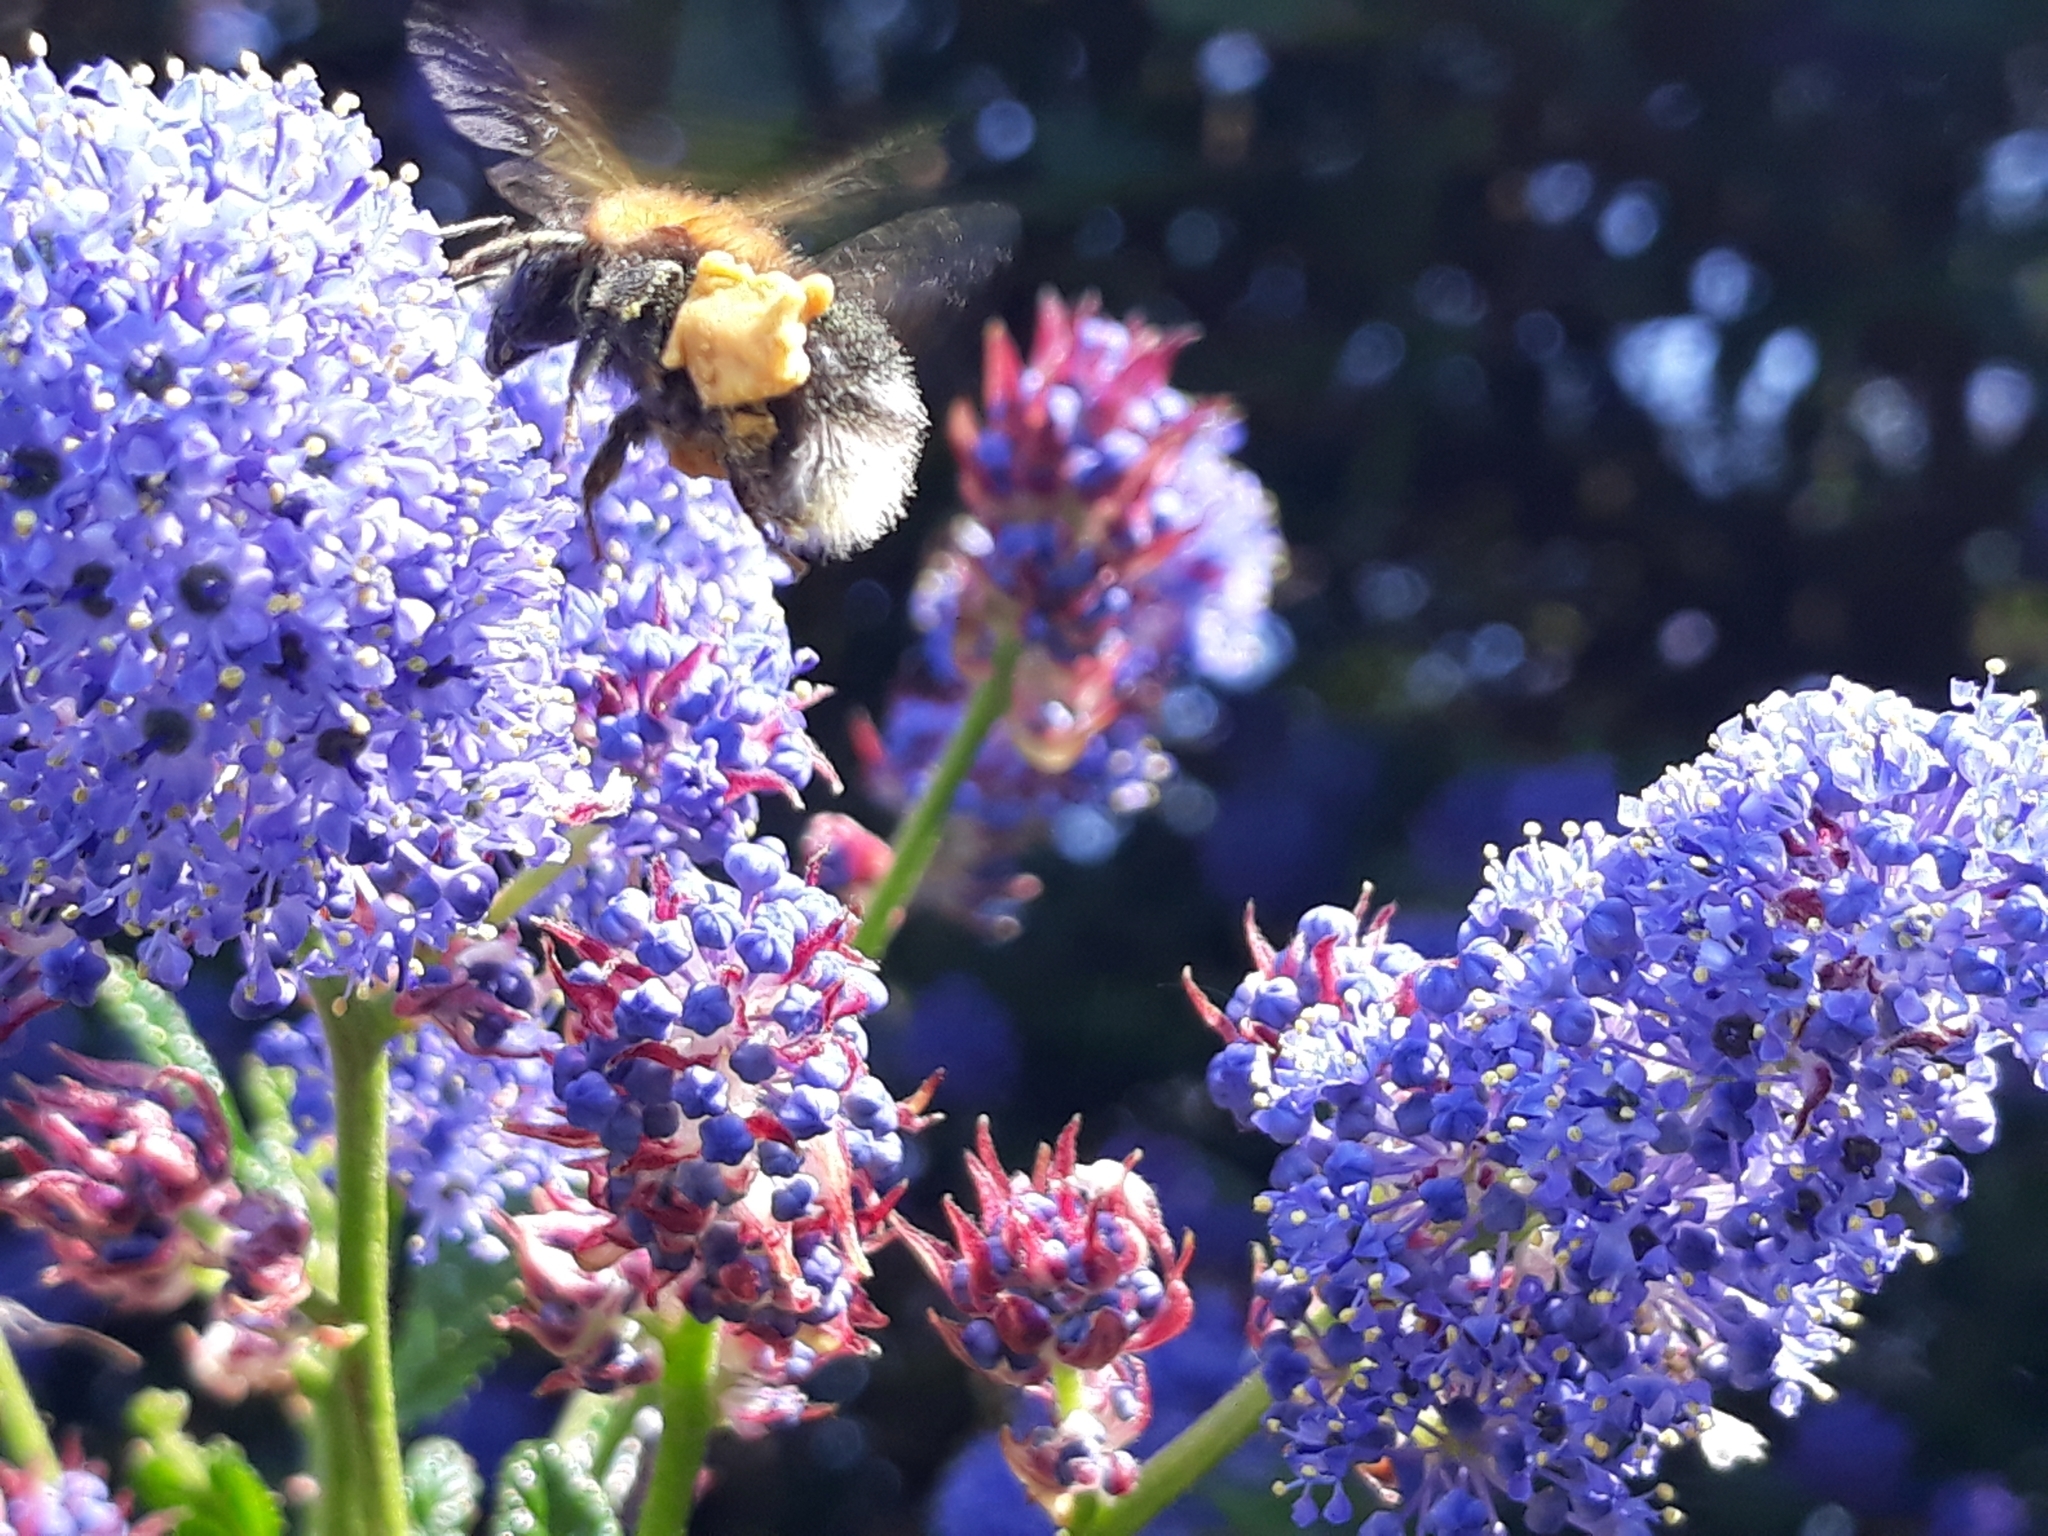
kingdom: Animalia
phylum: Arthropoda
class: Insecta
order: Hymenoptera
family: Apidae
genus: Bombus
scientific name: Bombus hypnorum
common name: New garden bumblebee
